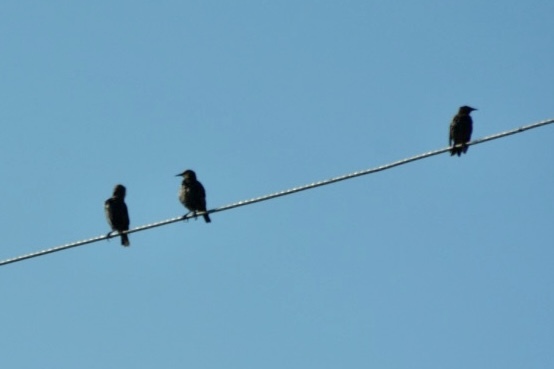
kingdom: Animalia
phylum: Chordata
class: Aves
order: Passeriformes
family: Sturnidae
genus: Sturnus
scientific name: Sturnus vulgaris
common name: Common starling
